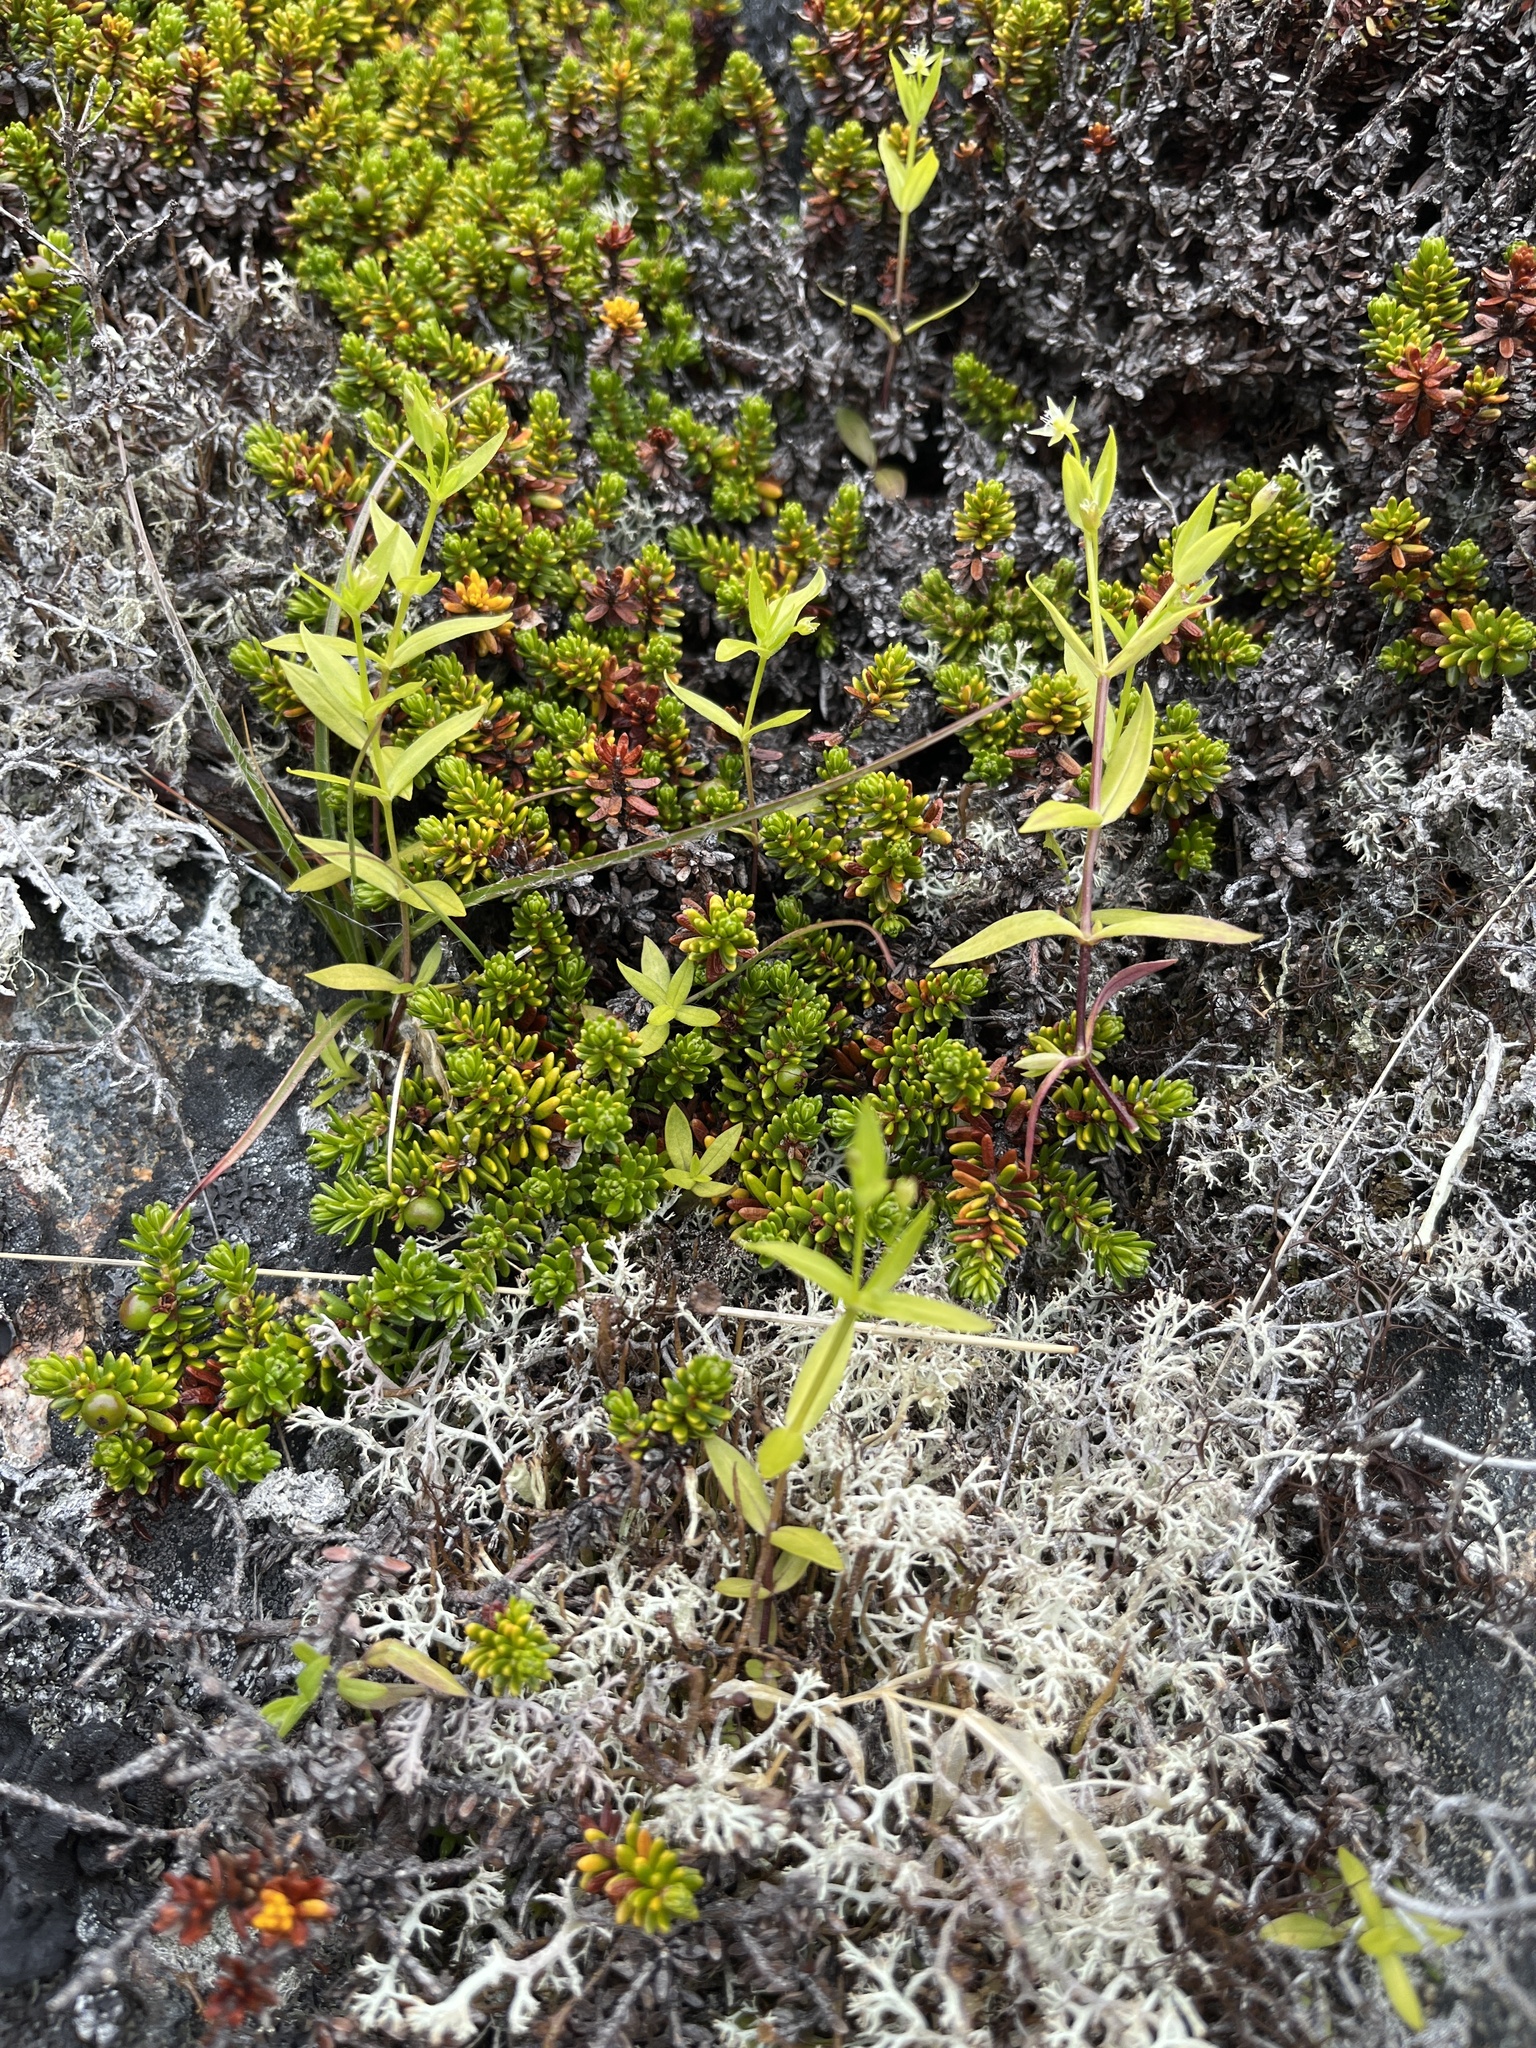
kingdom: Plantae
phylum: Tracheophyta
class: Magnoliopsida
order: Caryophyllales
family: Caryophyllaceae
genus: Stellaria
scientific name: Stellaria calycantha
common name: Northern starwort
